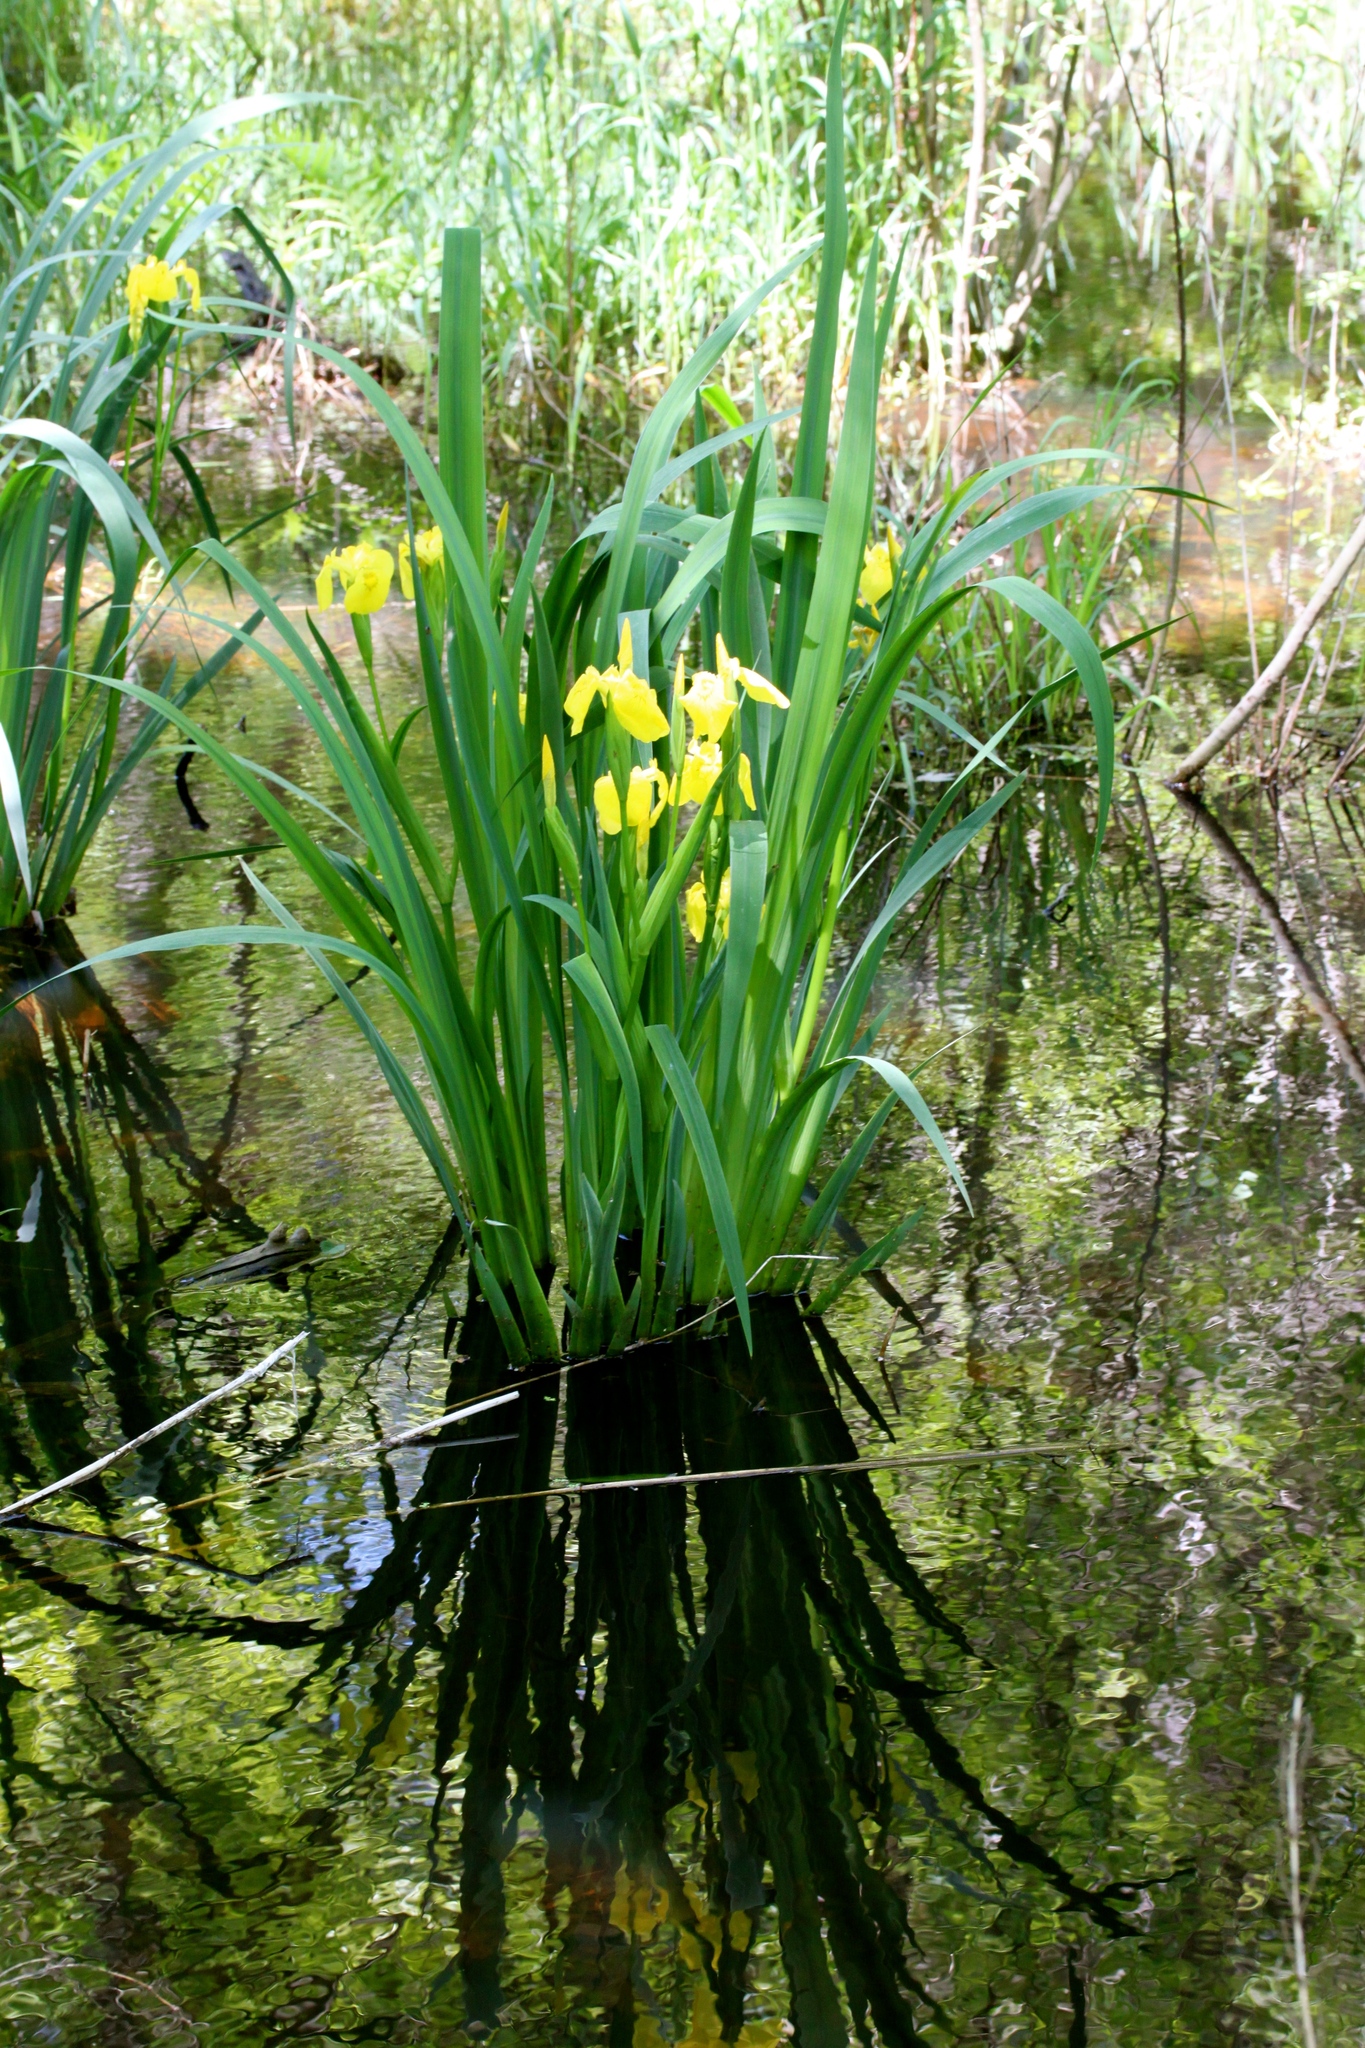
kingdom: Plantae
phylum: Tracheophyta
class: Liliopsida
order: Asparagales
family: Iridaceae
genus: Iris
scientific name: Iris pseudacorus
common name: Yellow flag
